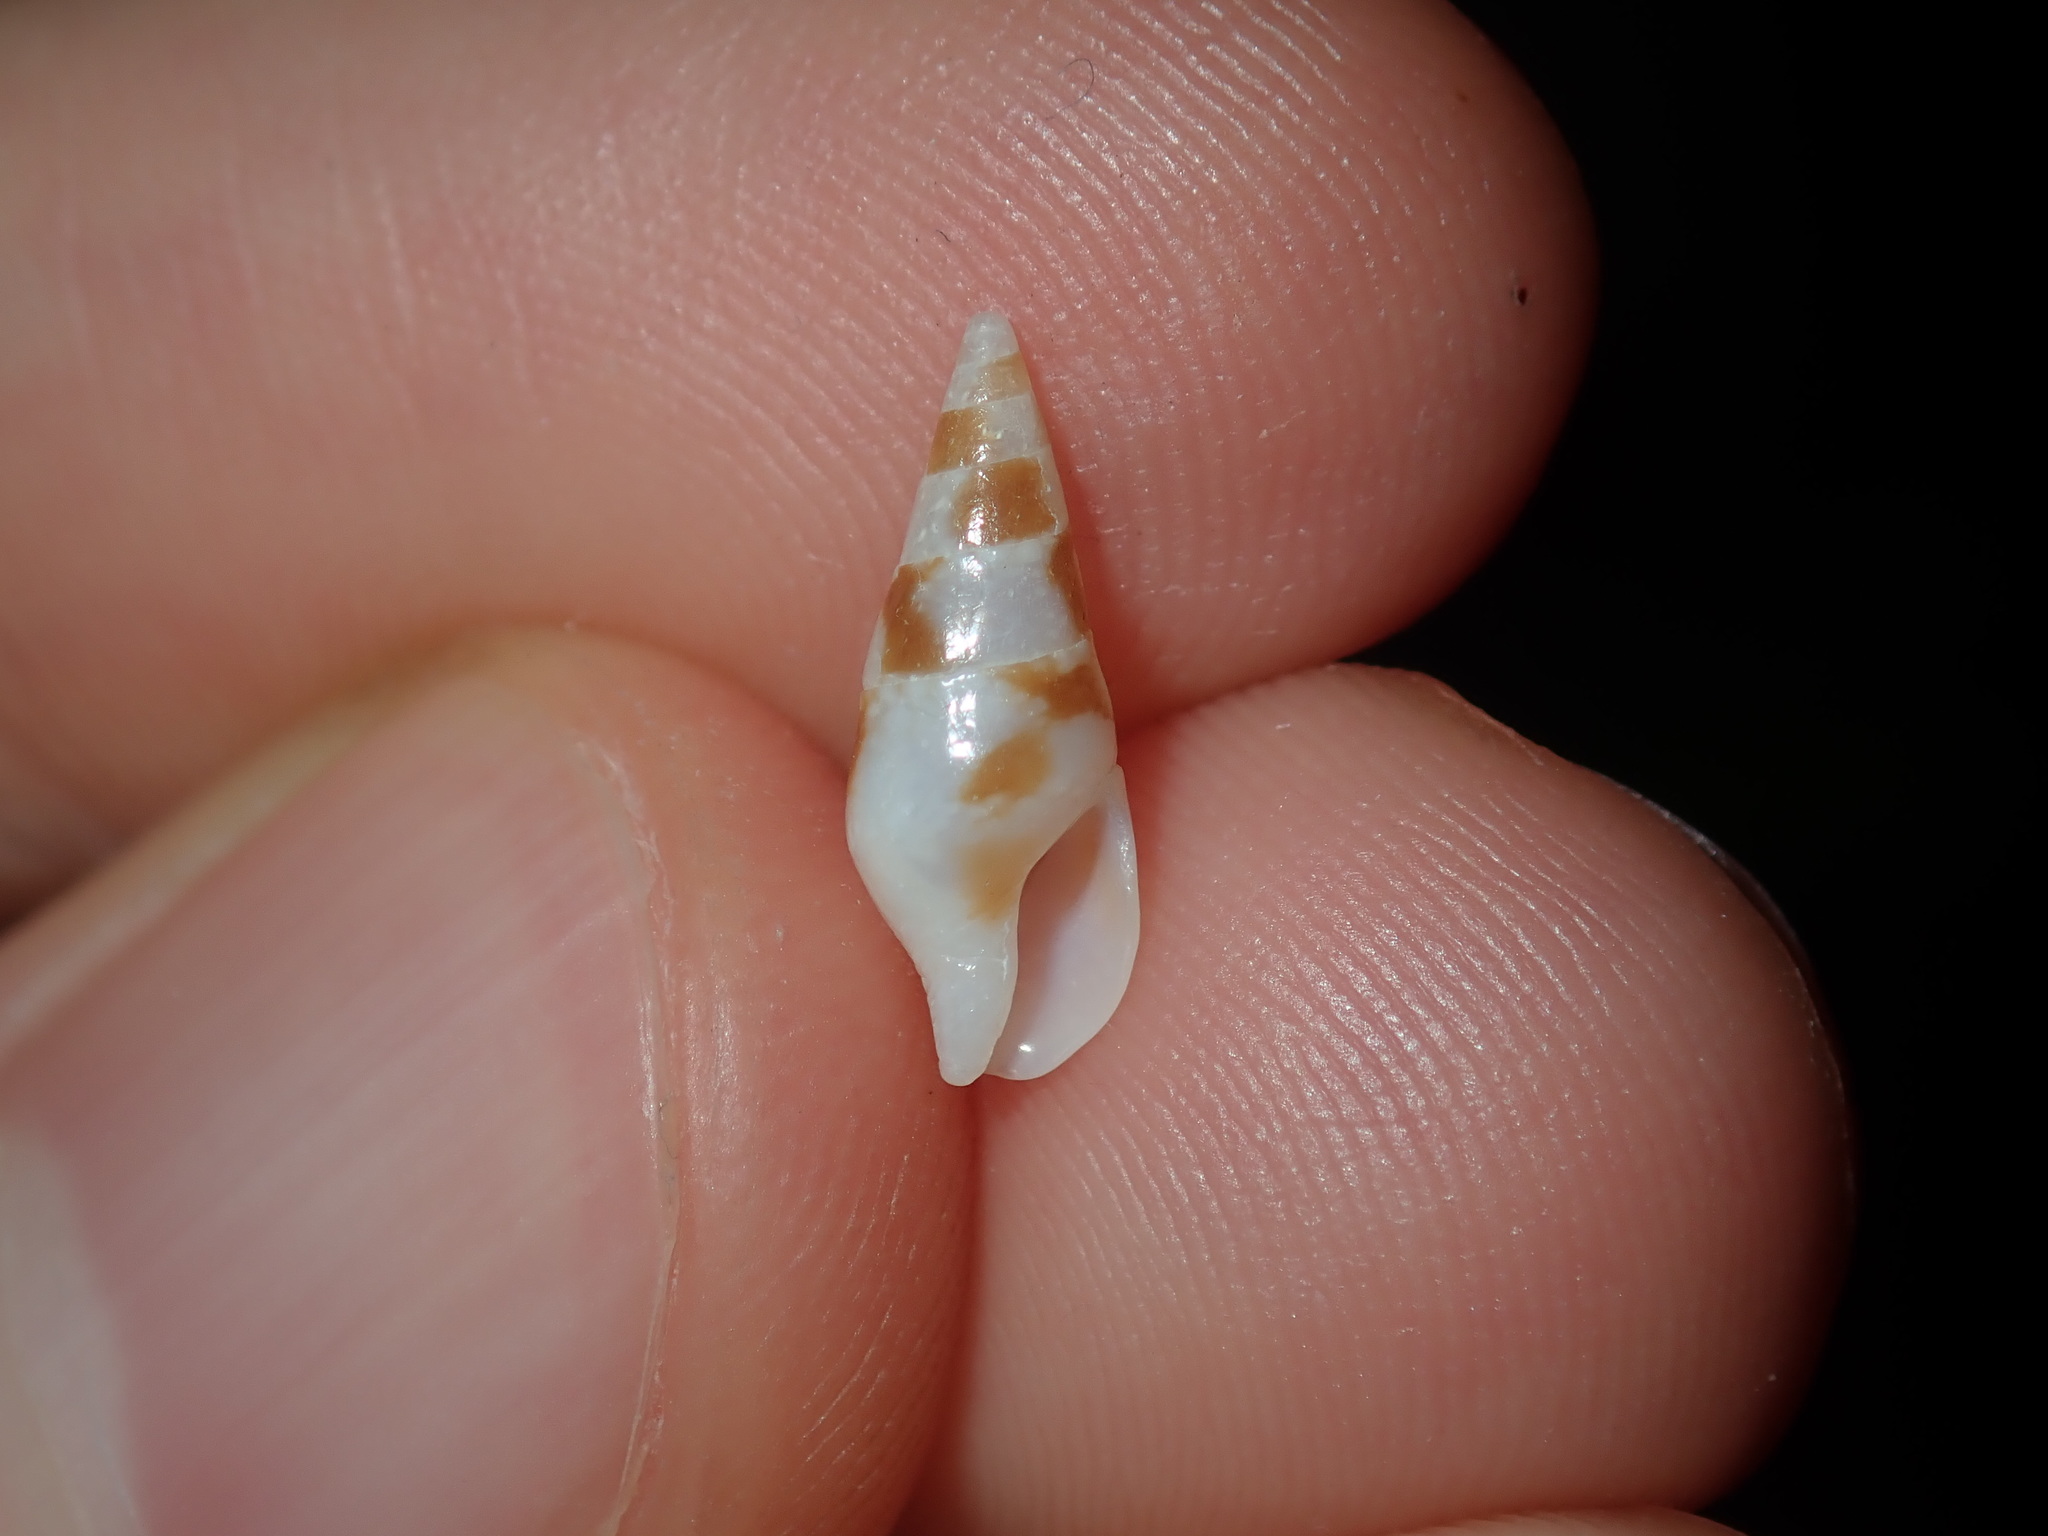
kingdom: Animalia
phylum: Mollusca
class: Gastropoda
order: Neogastropoda
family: Columbellidae
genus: Mitrella
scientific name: Mitrella intexta
